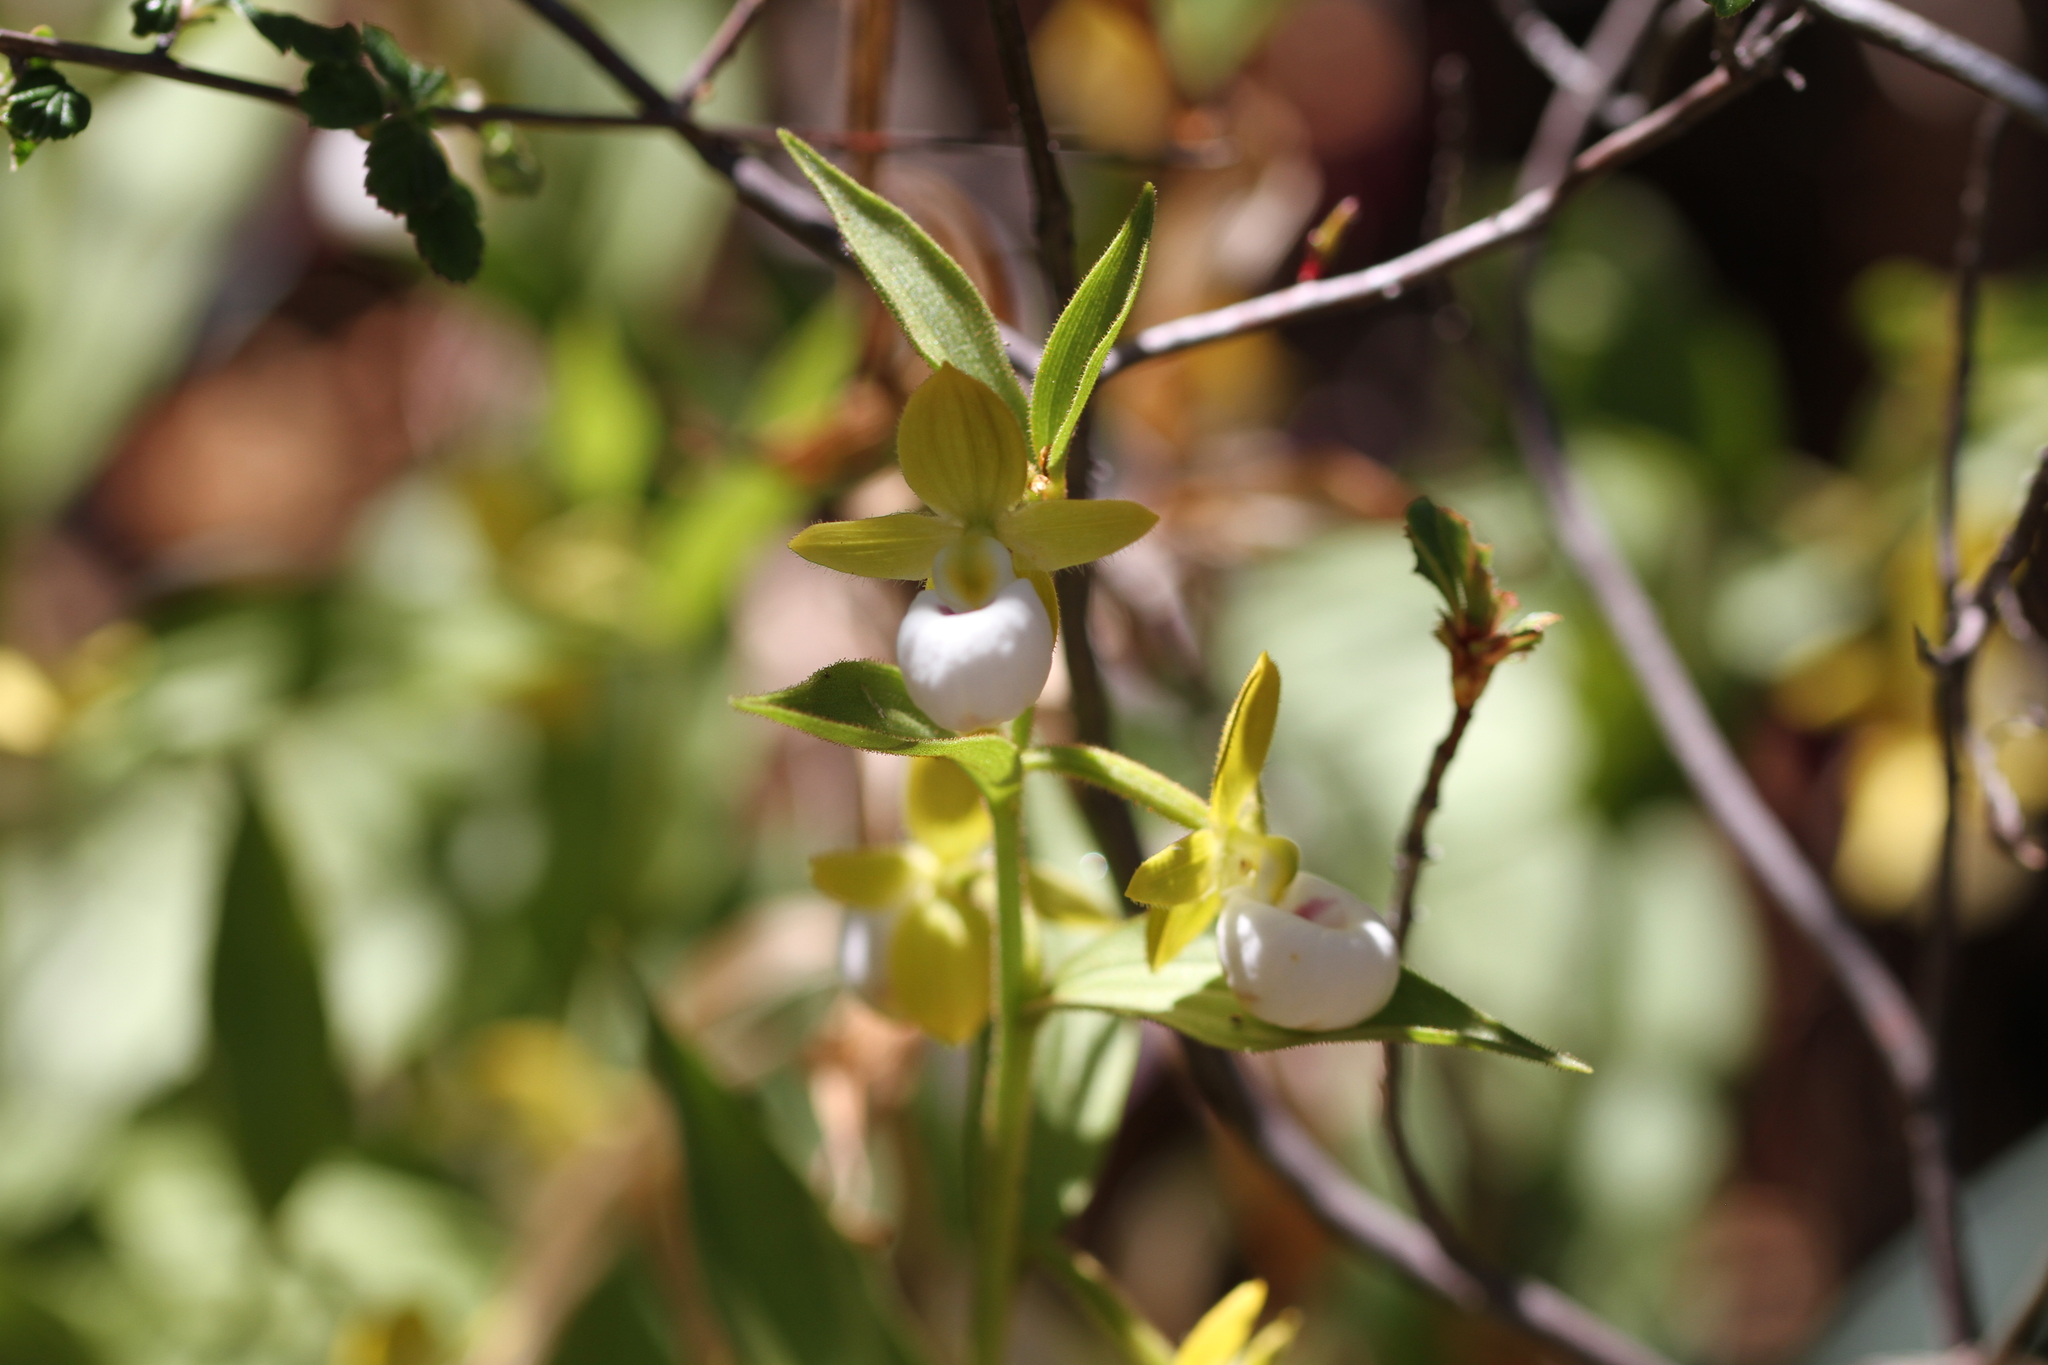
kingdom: Plantae
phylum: Tracheophyta
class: Liliopsida
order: Asparagales
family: Orchidaceae
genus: Cypripedium
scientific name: Cypripedium californicum
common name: California lady's slipper
